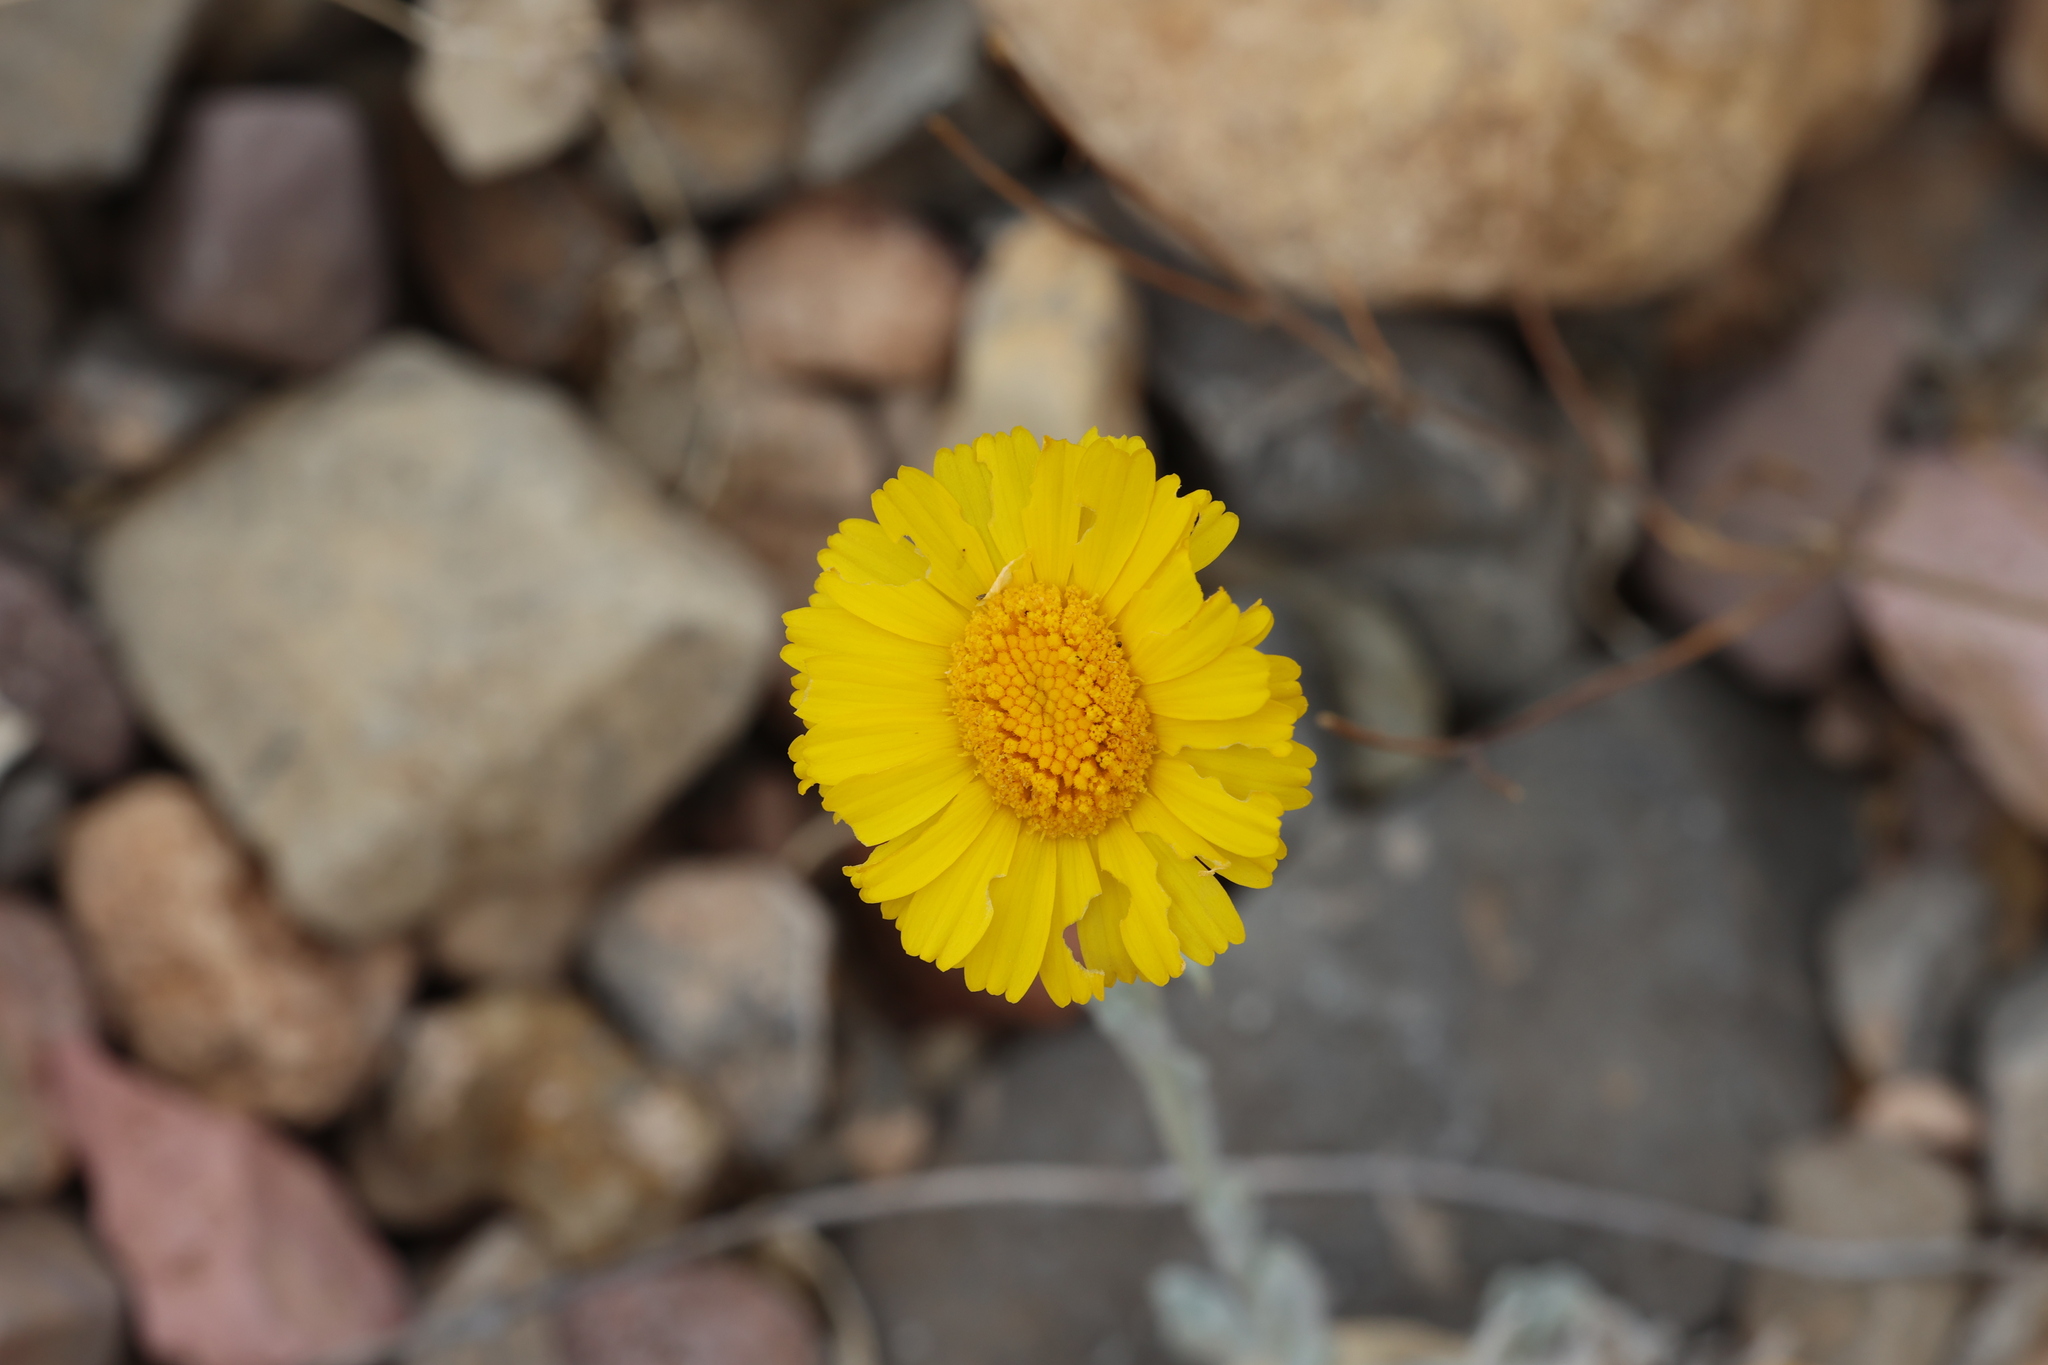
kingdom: Plantae
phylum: Tracheophyta
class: Magnoliopsida
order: Asterales
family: Asteraceae
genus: Baileya
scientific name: Baileya multiradiata
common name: Desert-marigold
